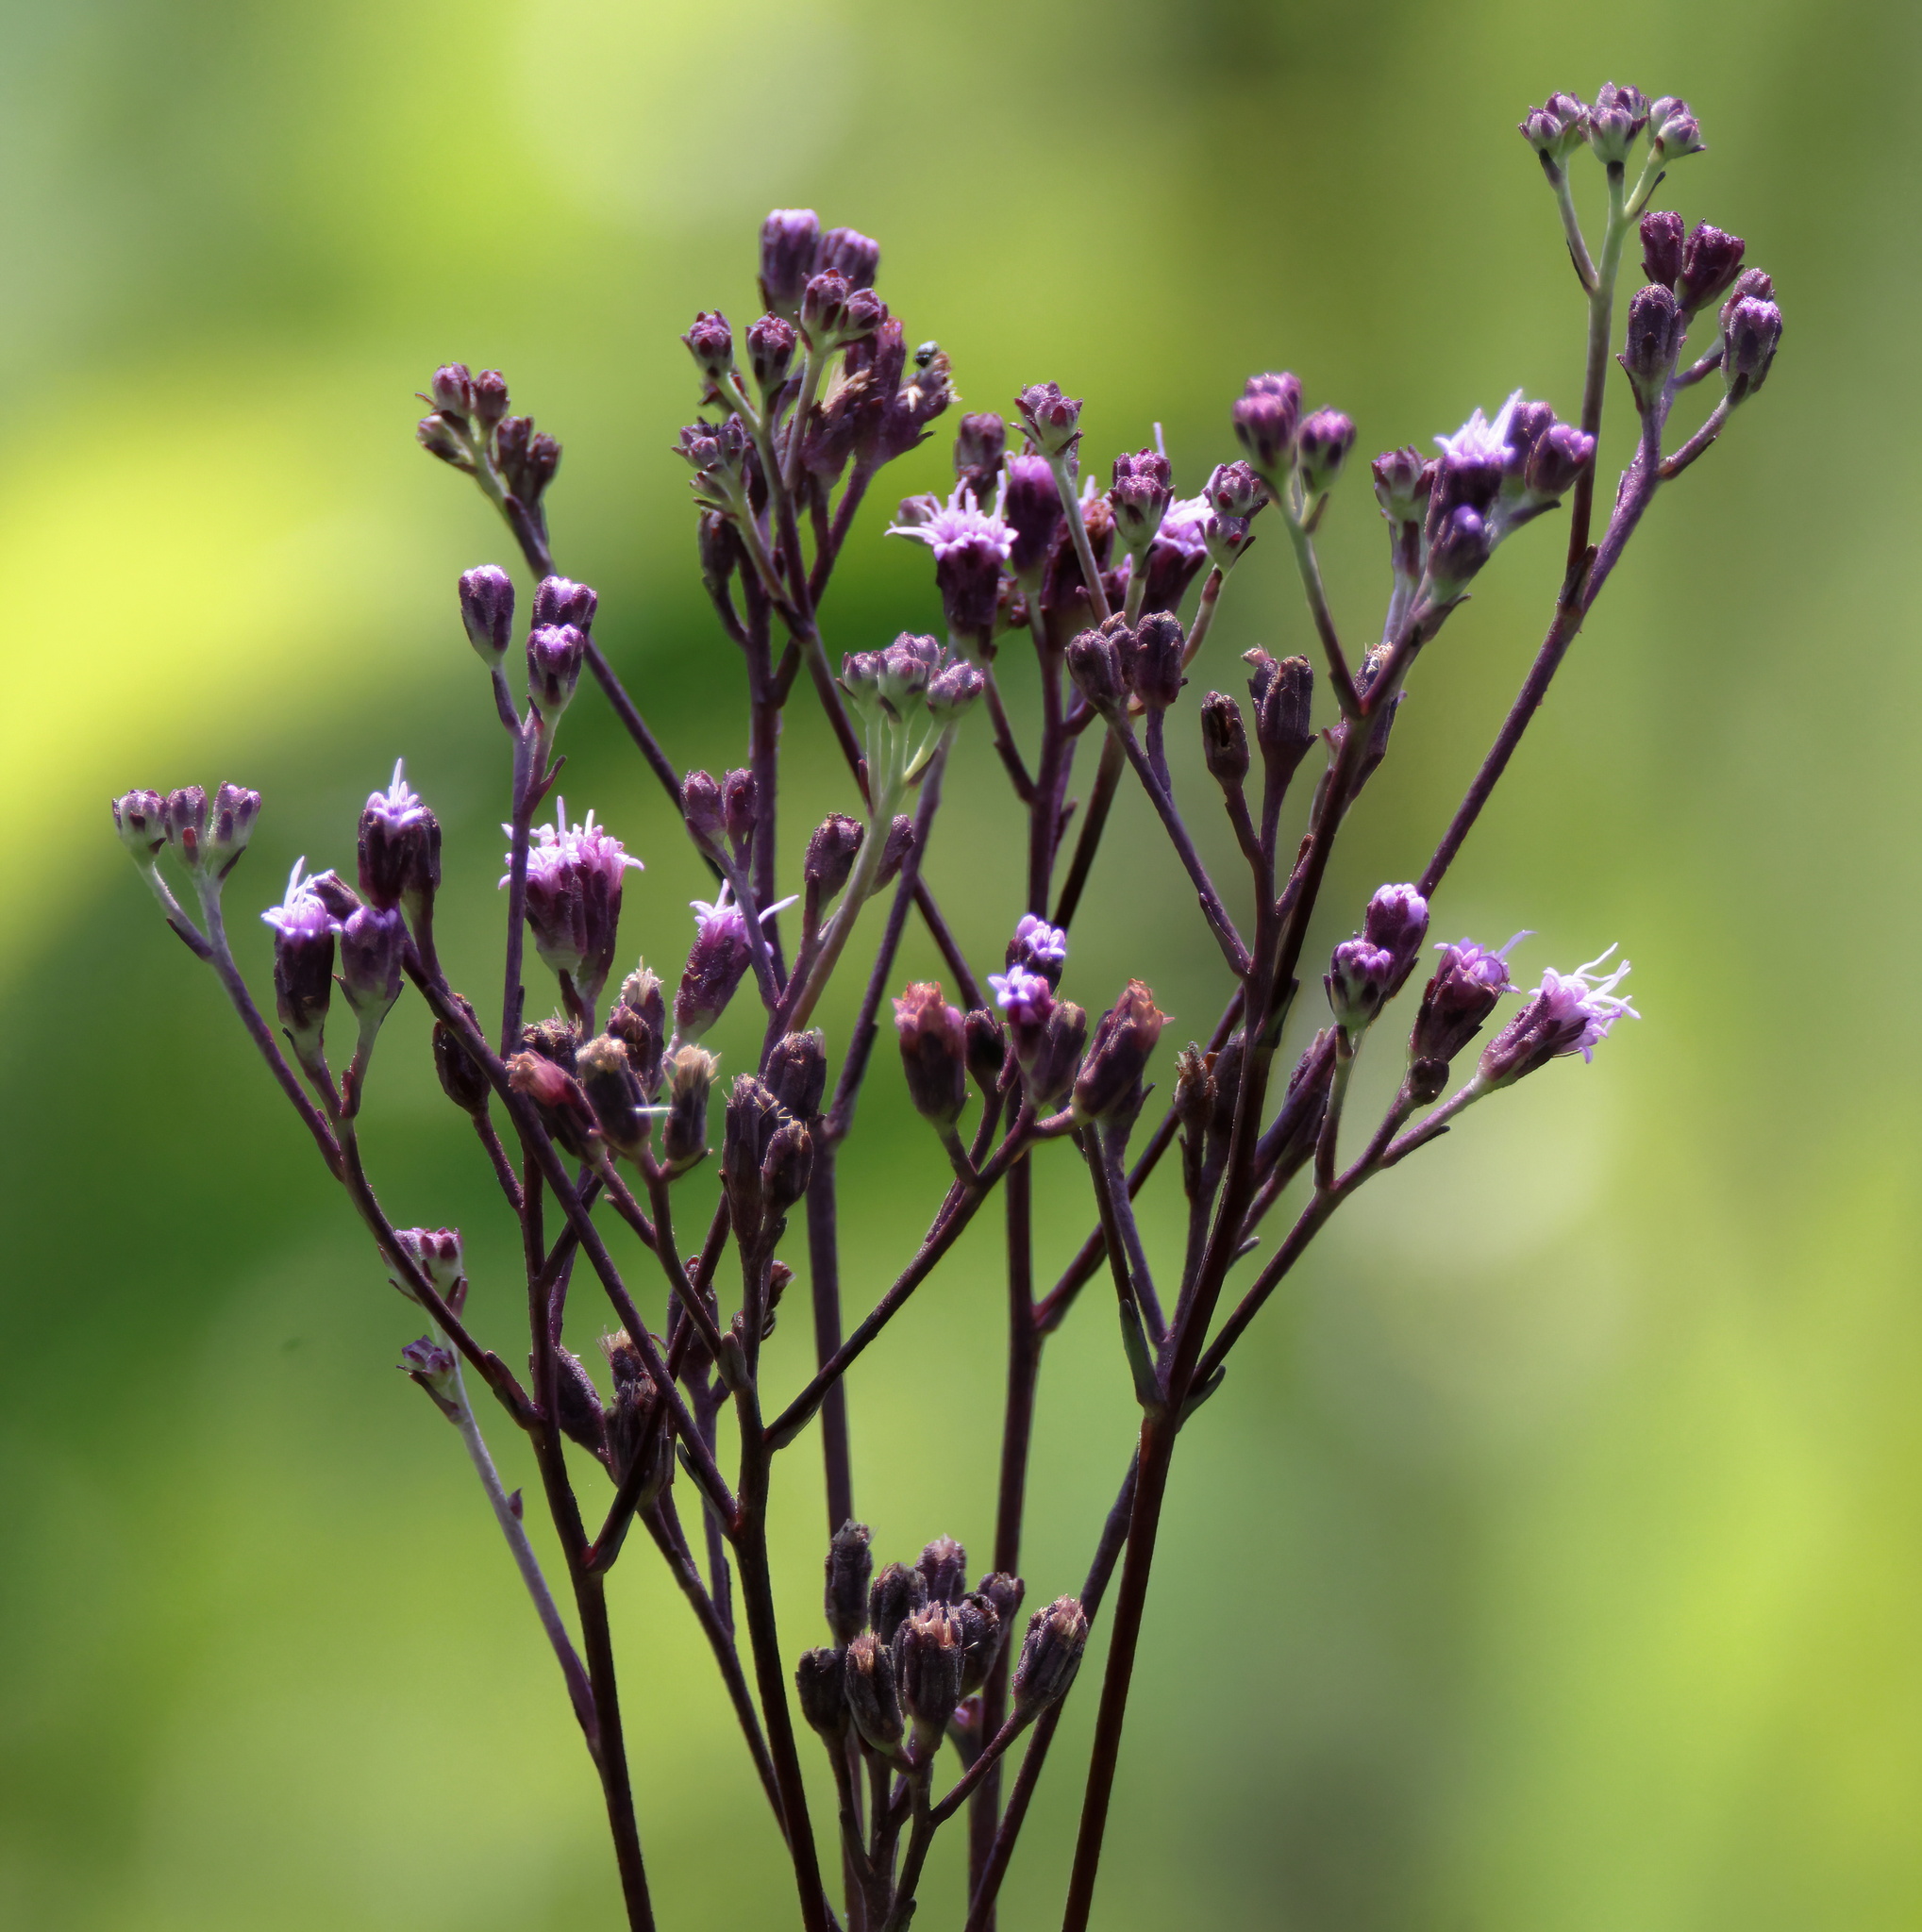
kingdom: Plantae
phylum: Tracheophyta
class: Magnoliopsida
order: Asterales
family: Asteraceae
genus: Carphephorus
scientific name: Carphephorus odoratissimus
